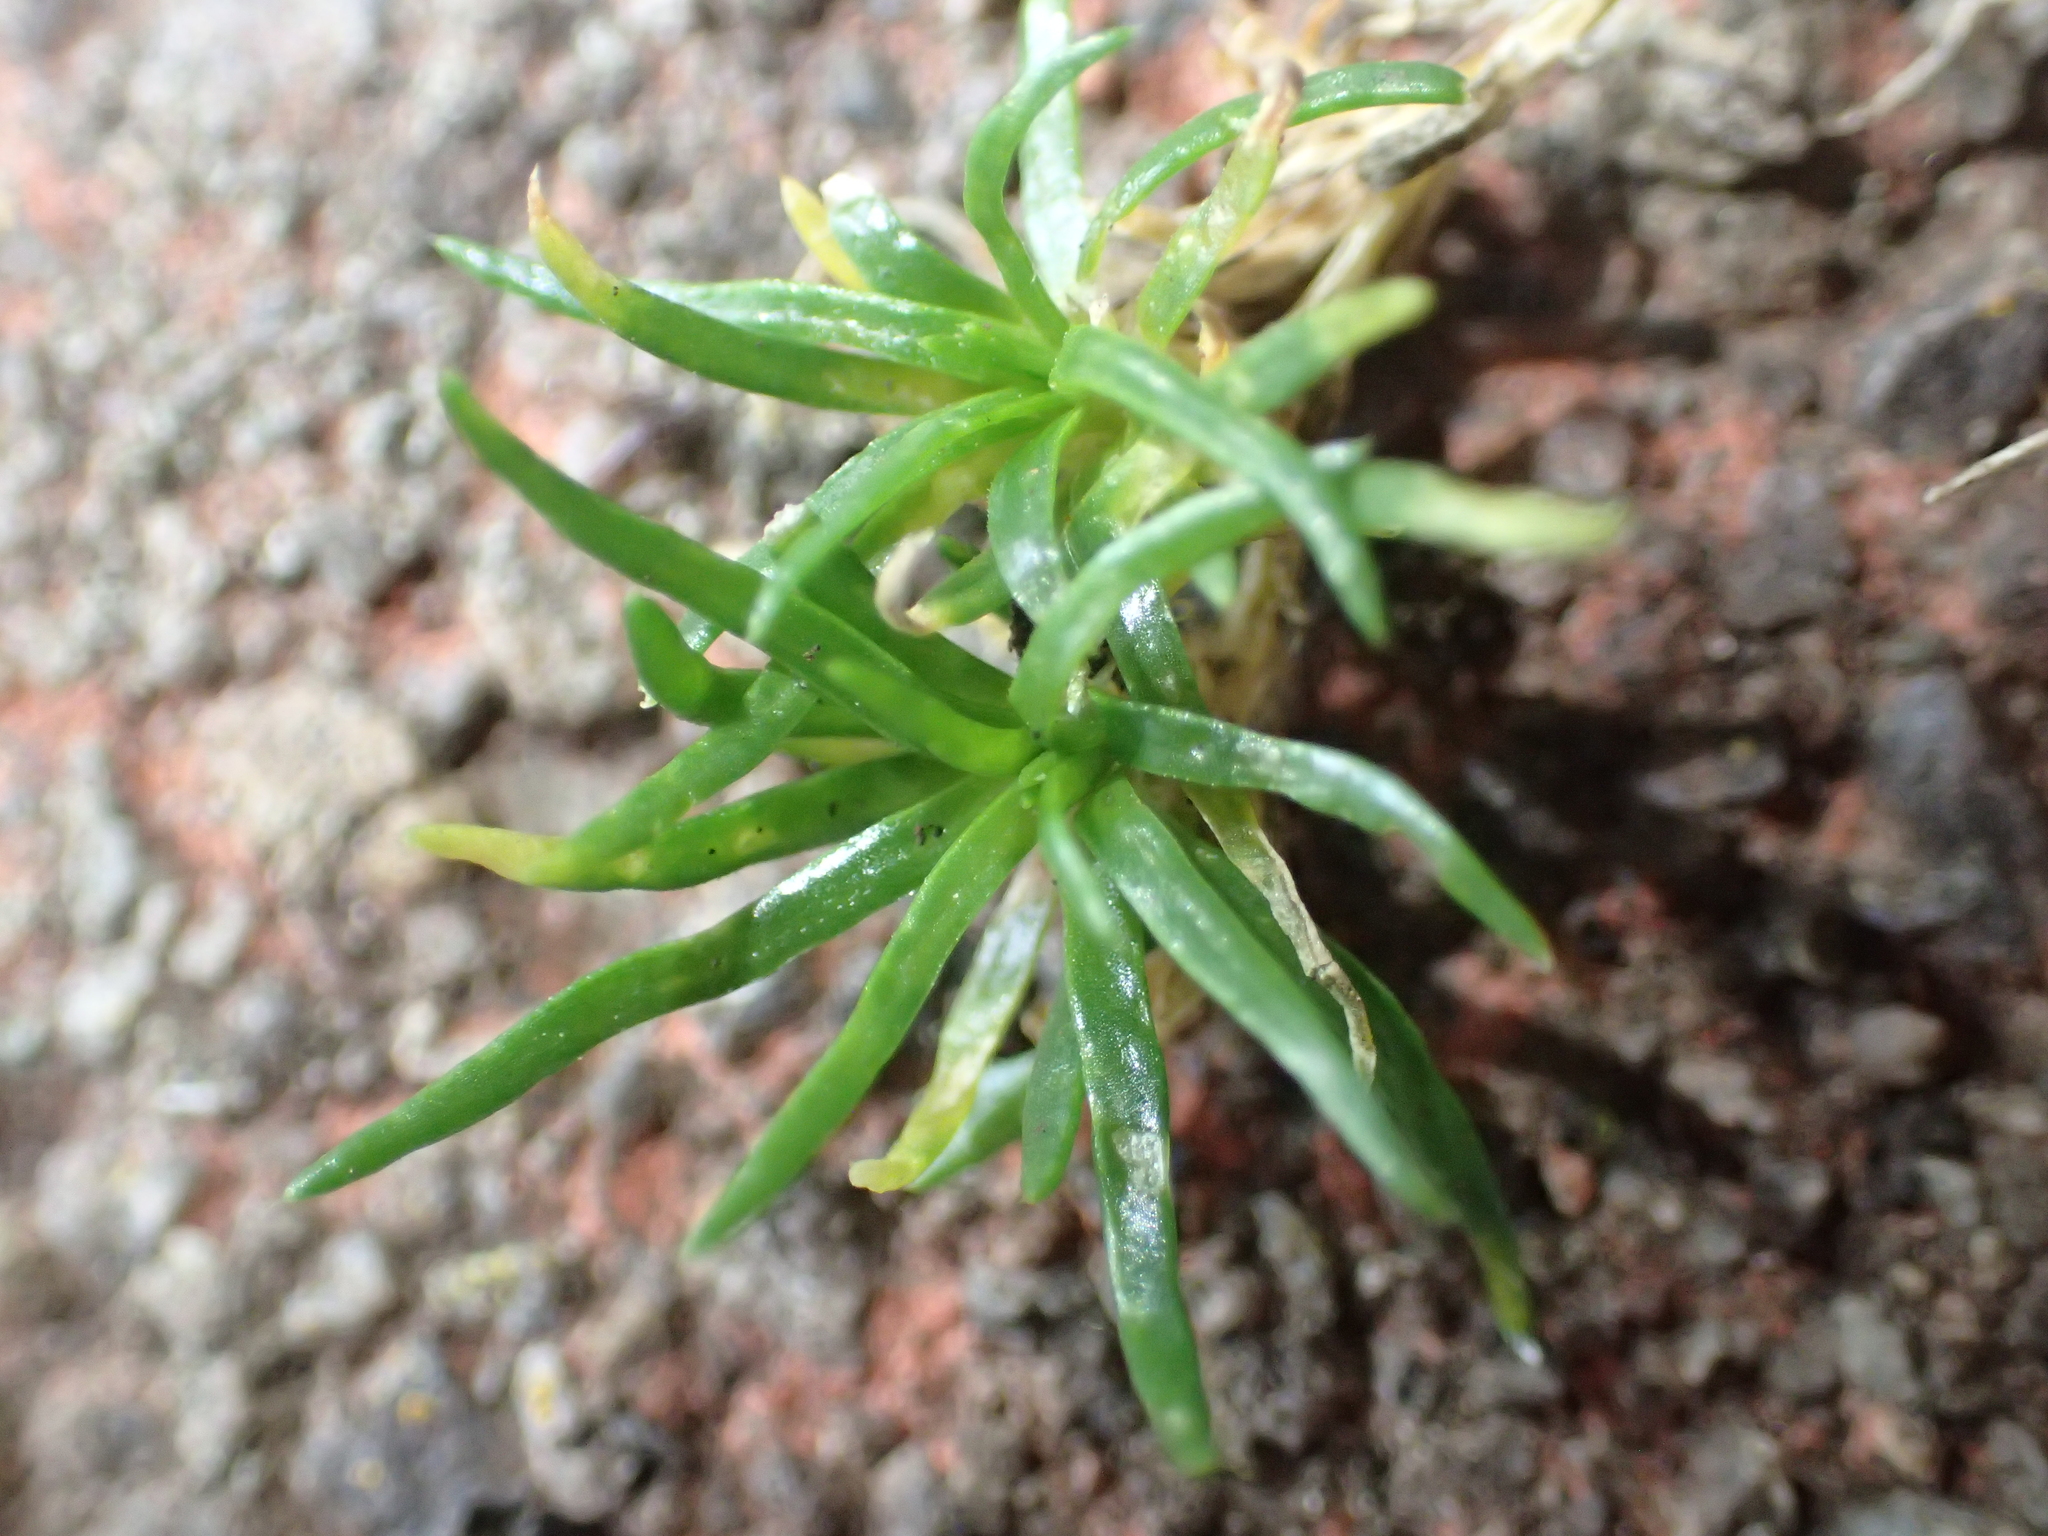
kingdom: Plantae
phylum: Tracheophyta
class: Magnoliopsida
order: Caryophyllales
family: Caryophyllaceae
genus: Sagina
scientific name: Sagina procumbens
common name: Procumbent pearlwort
